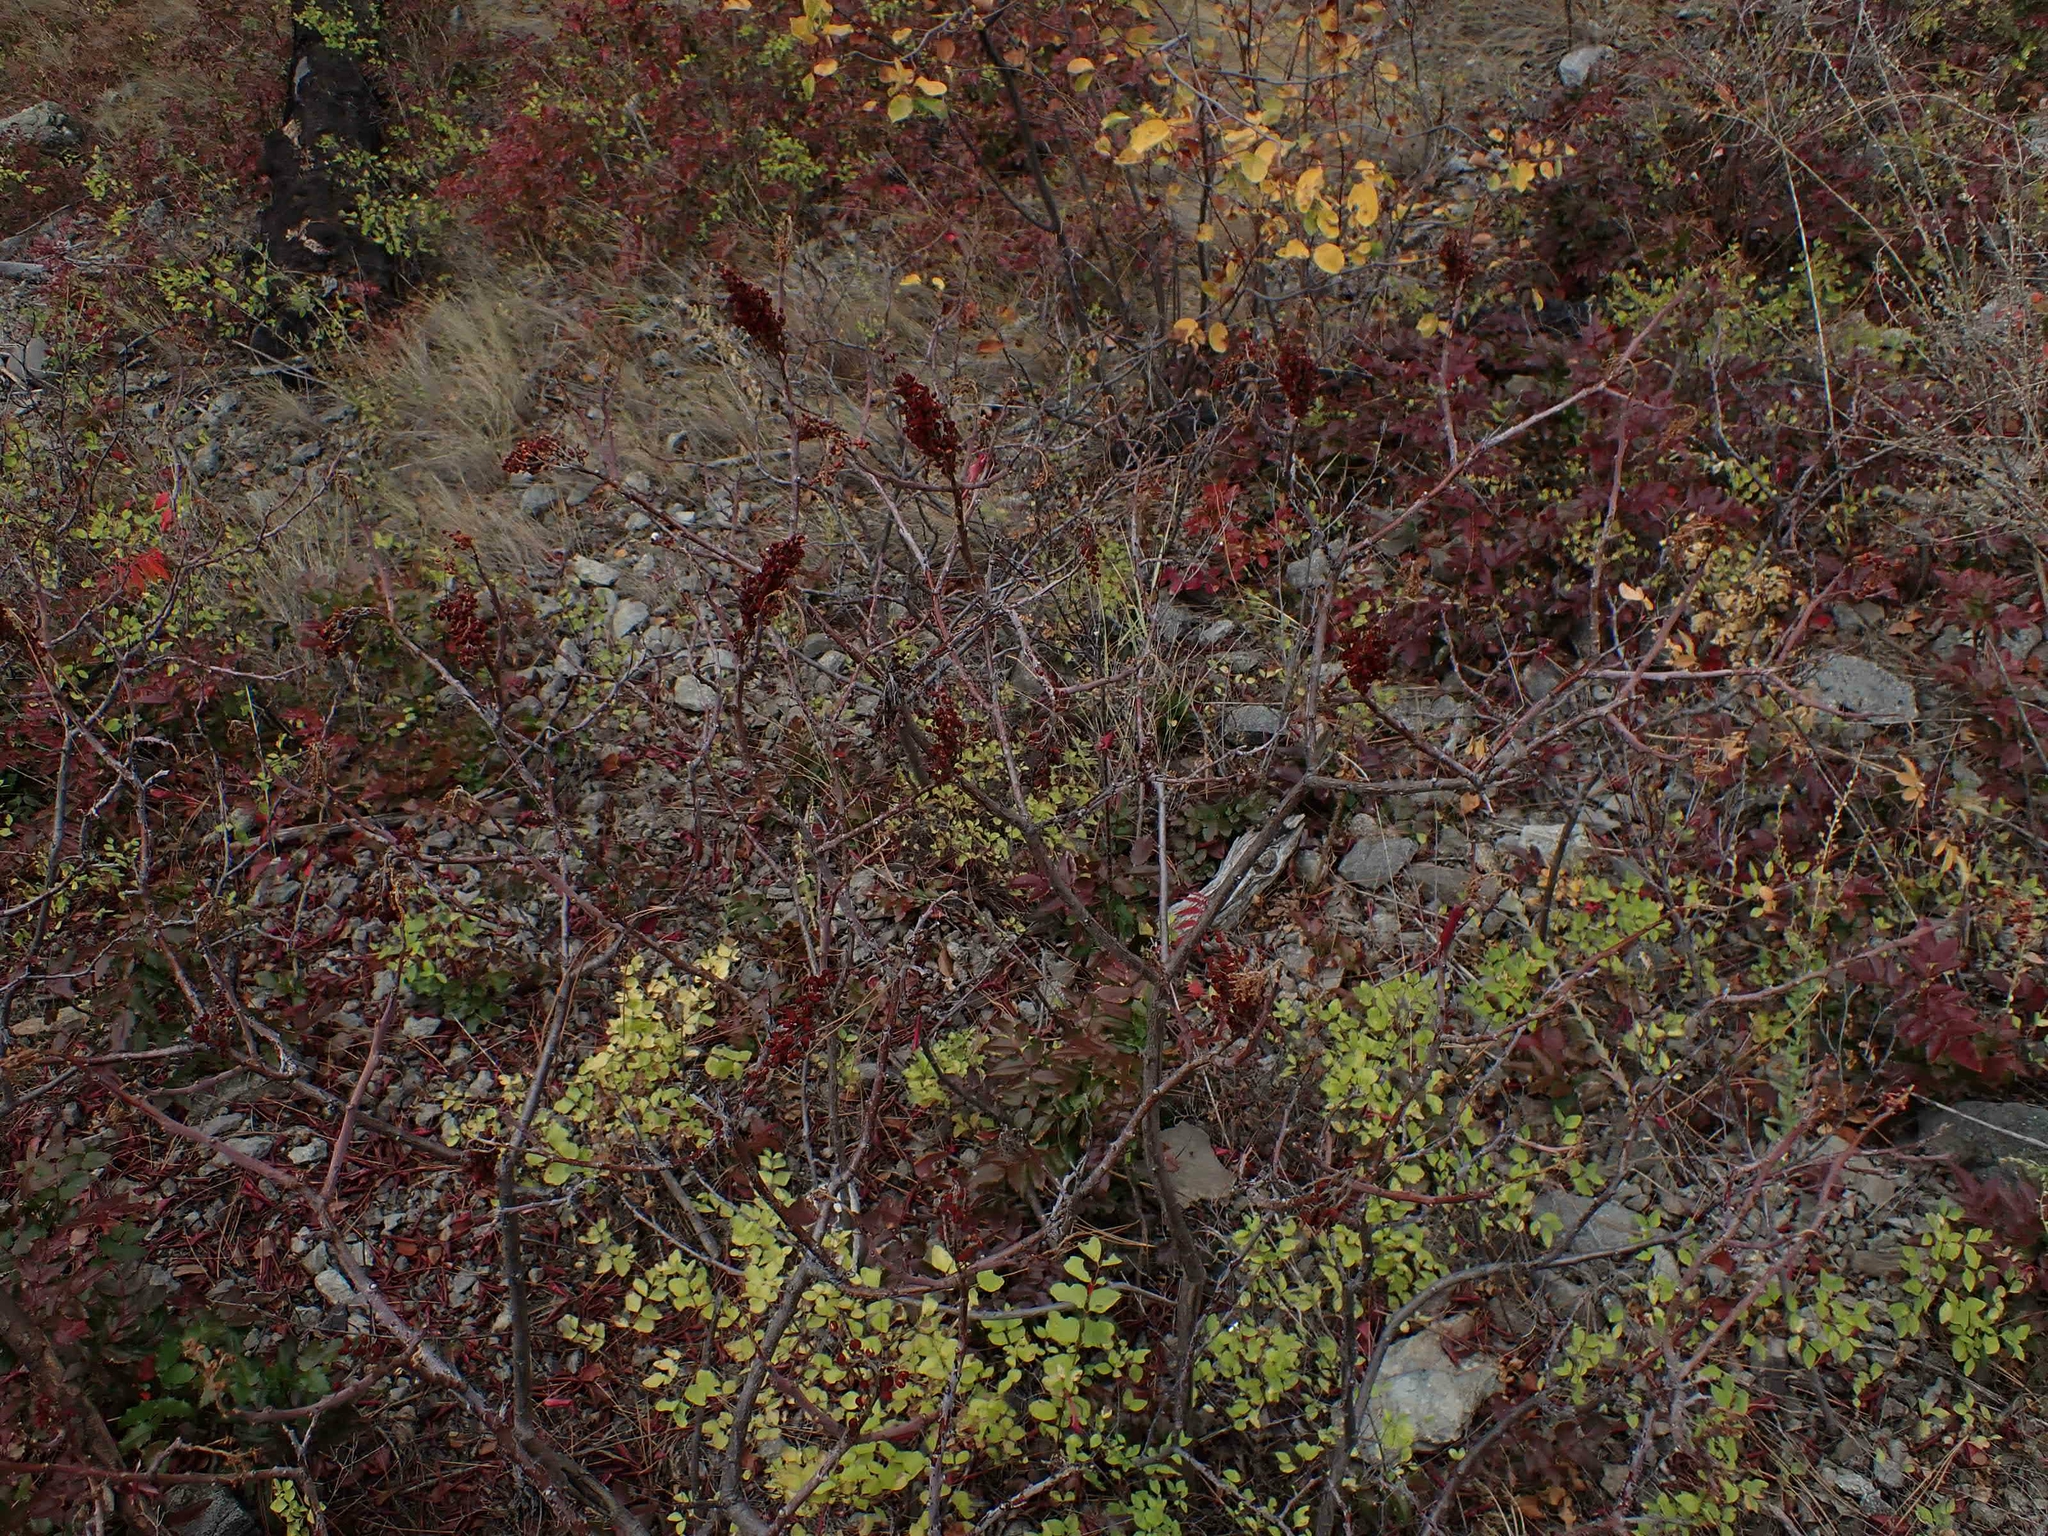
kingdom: Plantae
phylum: Tracheophyta
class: Magnoliopsida
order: Sapindales
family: Anacardiaceae
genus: Rhus
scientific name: Rhus glabra
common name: Scarlet sumac
